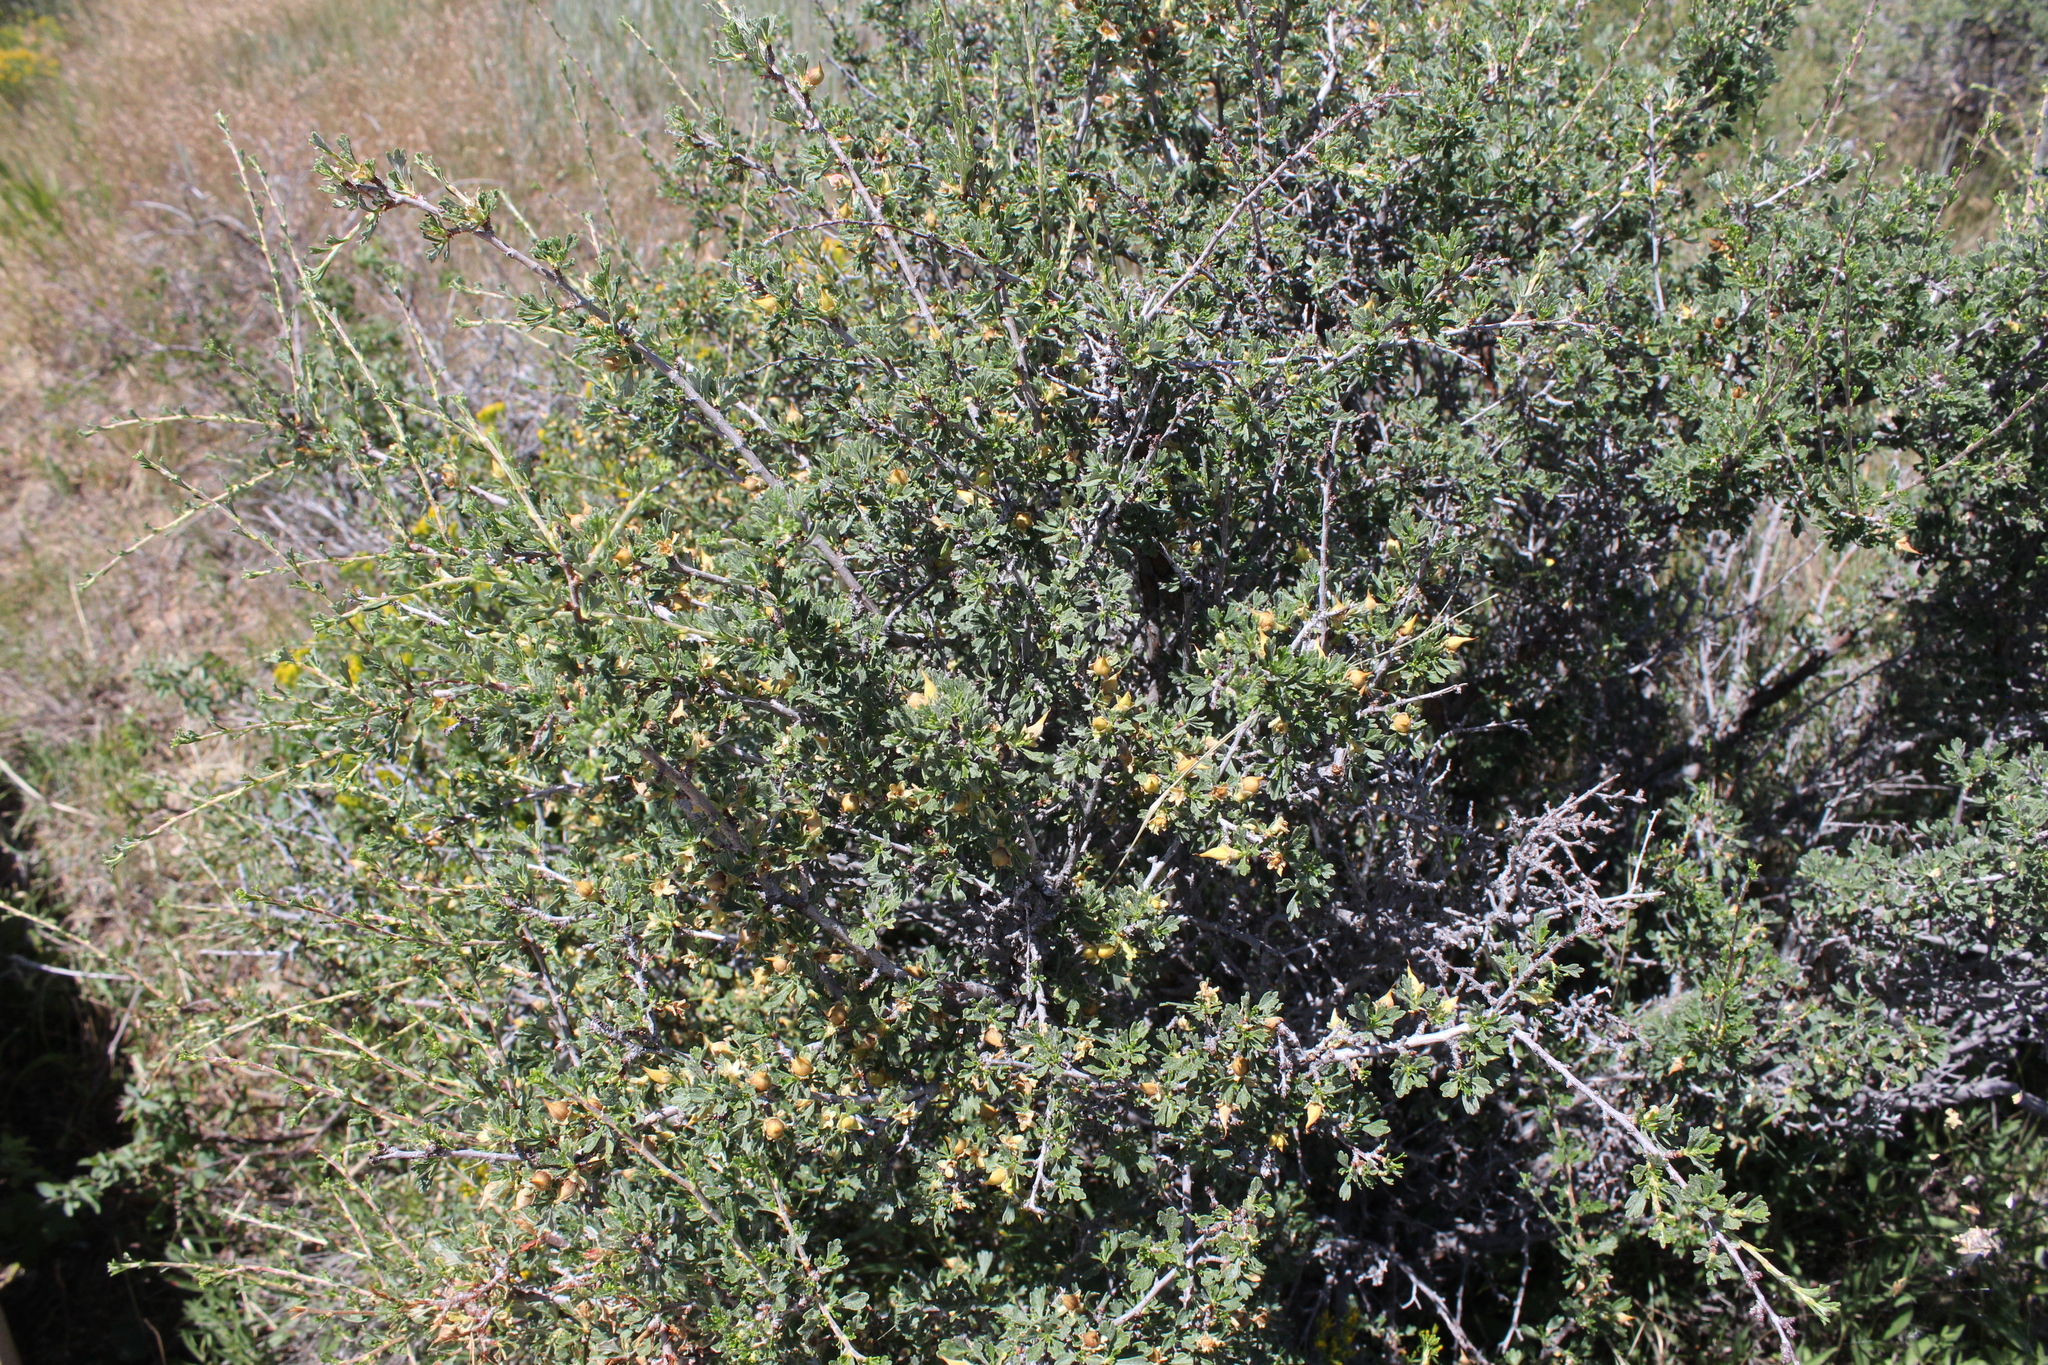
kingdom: Plantae
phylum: Tracheophyta
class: Magnoliopsida
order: Rosales
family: Rosaceae
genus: Purshia
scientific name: Purshia tridentata
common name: Antelope bitterbrush
